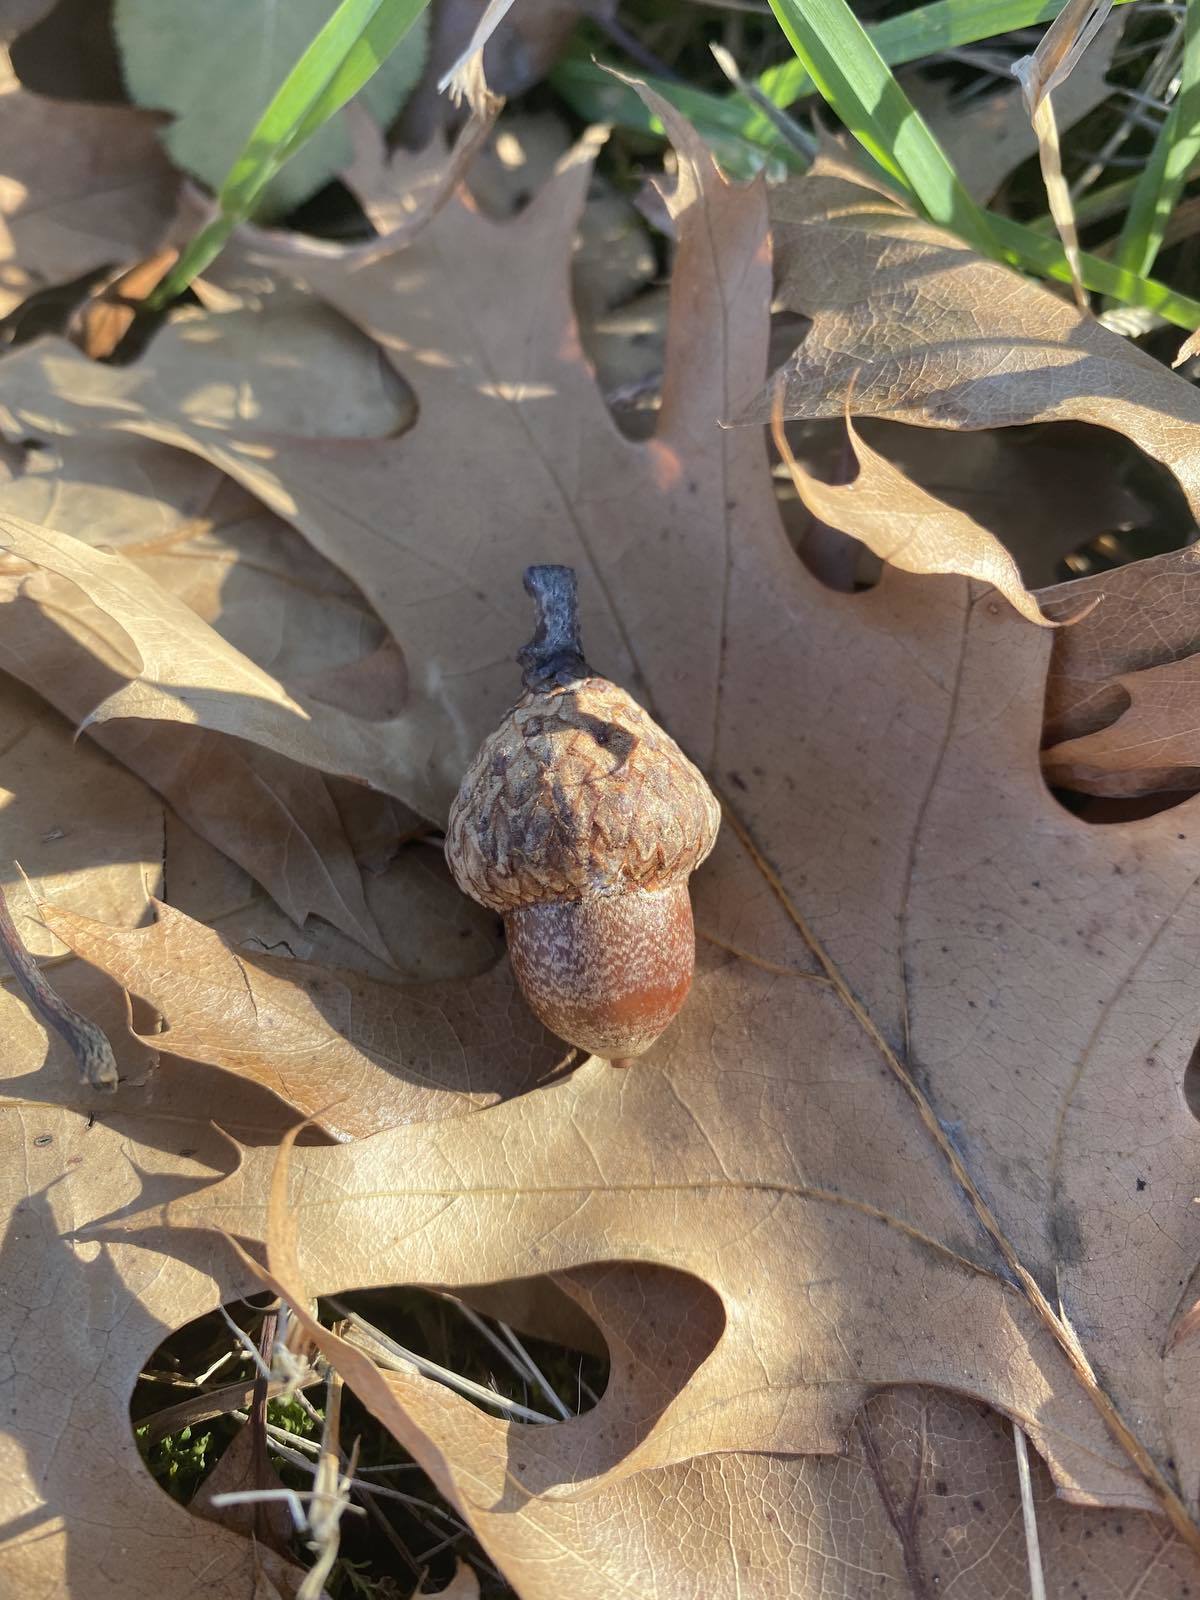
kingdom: Plantae
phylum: Tracheophyta
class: Magnoliopsida
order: Fagales
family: Fagaceae
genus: Quercus
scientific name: Quercus rubra
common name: Red oak
